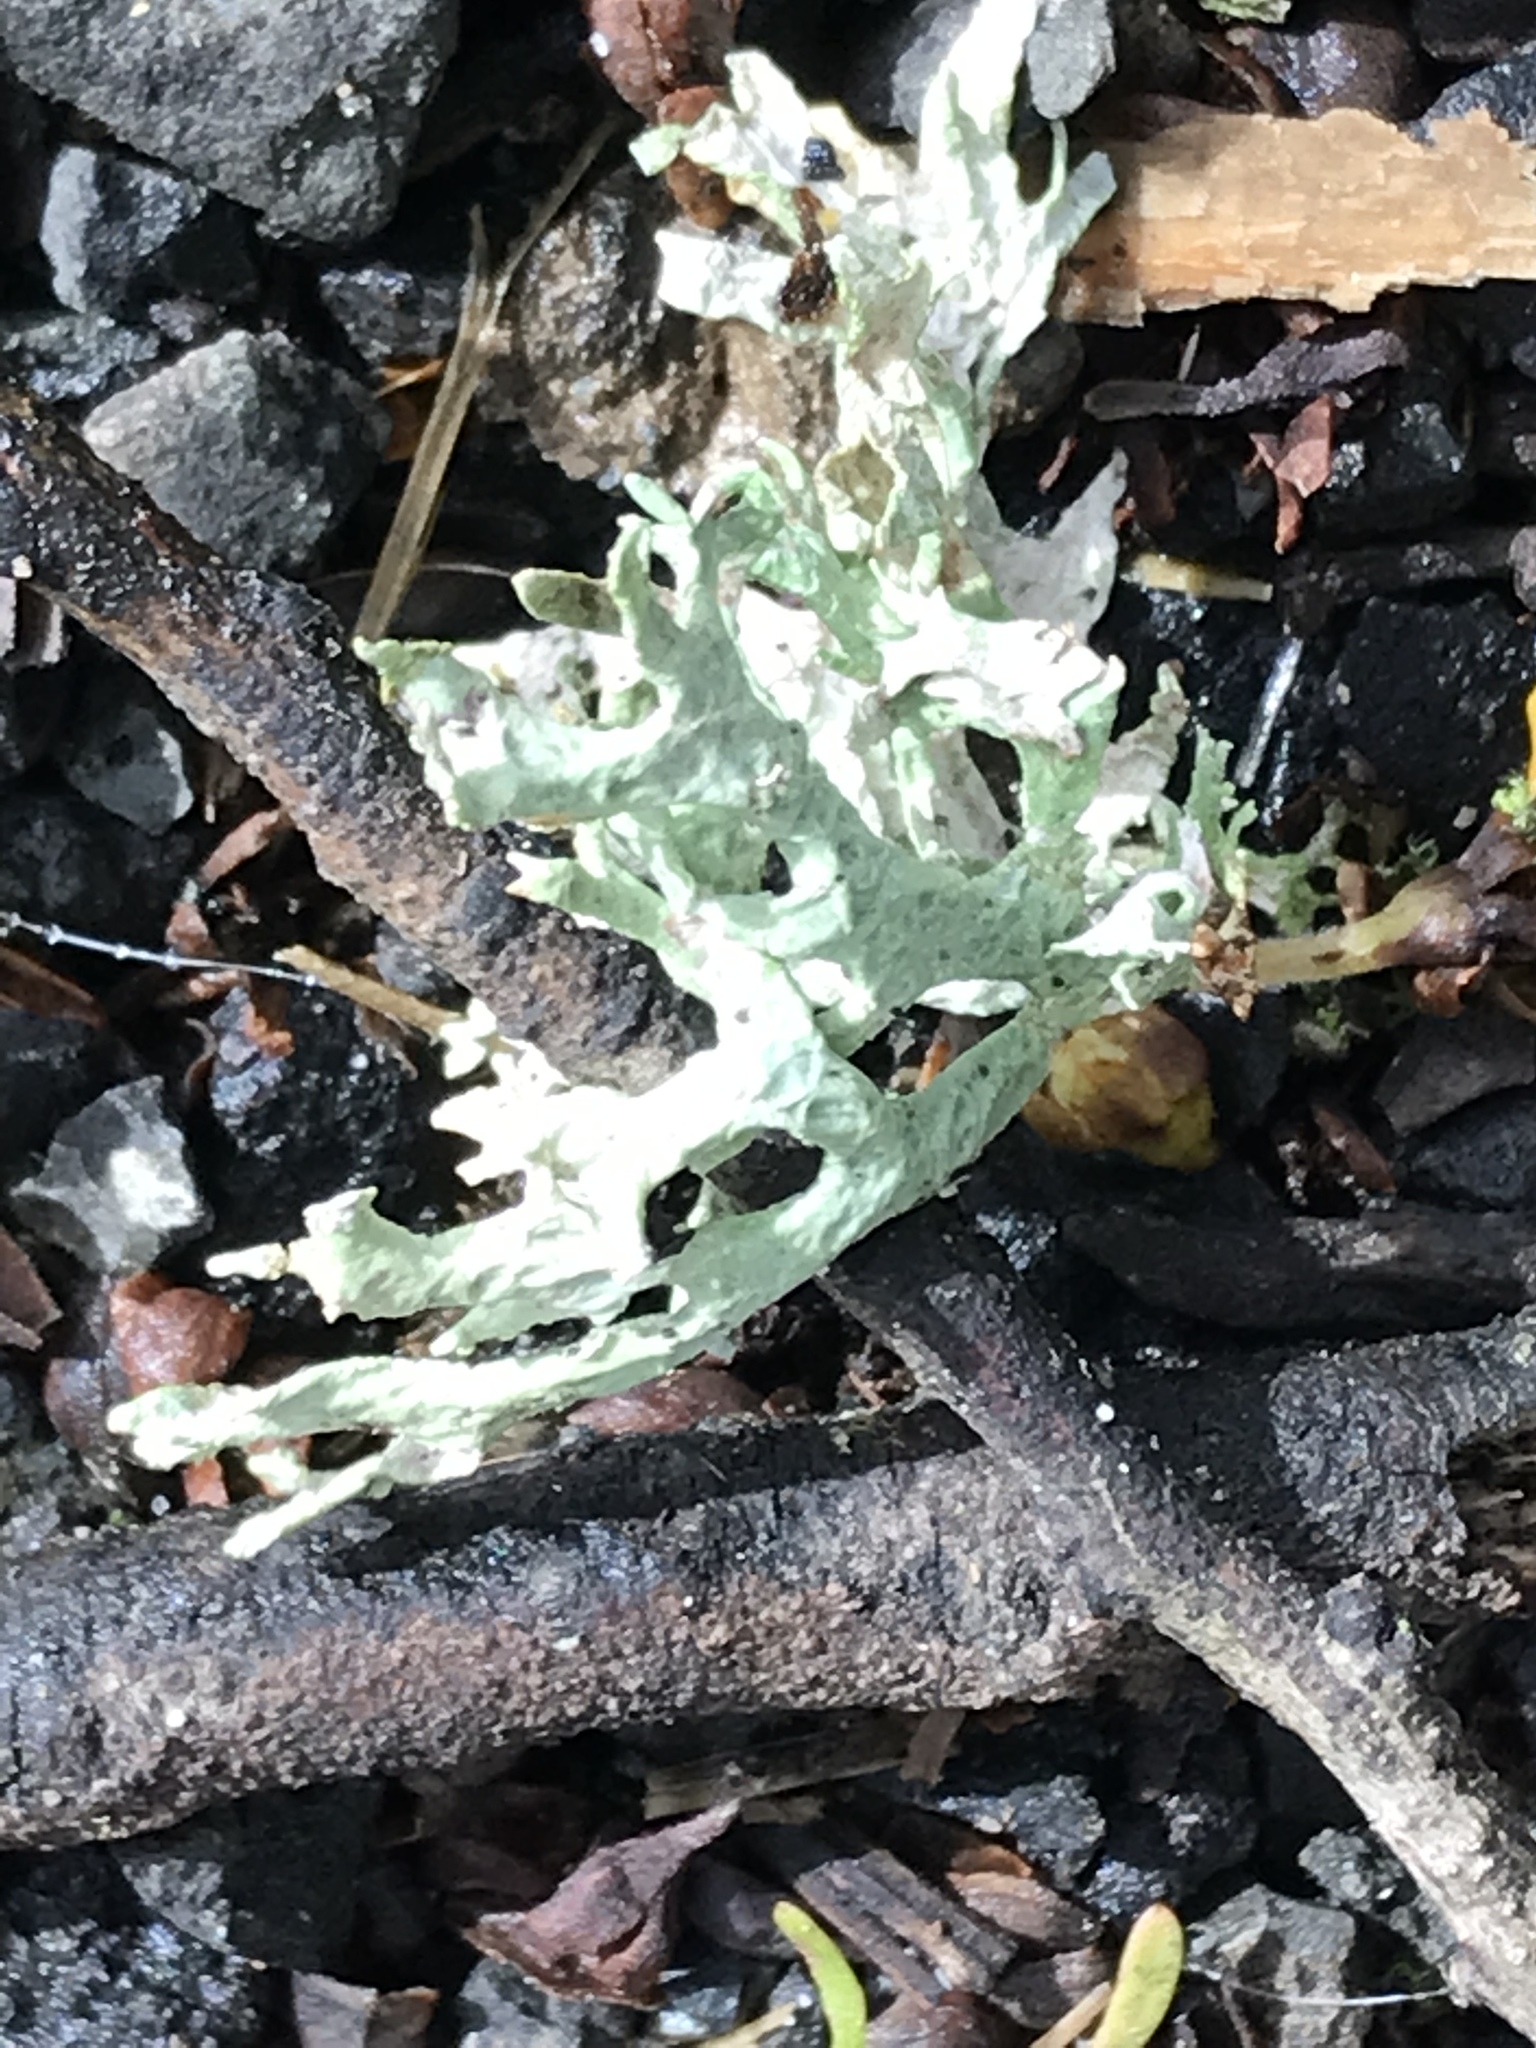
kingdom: Fungi
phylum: Ascomycota
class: Lecanoromycetes
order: Lecanorales
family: Parmeliaceae
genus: Evernia
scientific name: Evernia prunastri
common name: Oak moss
